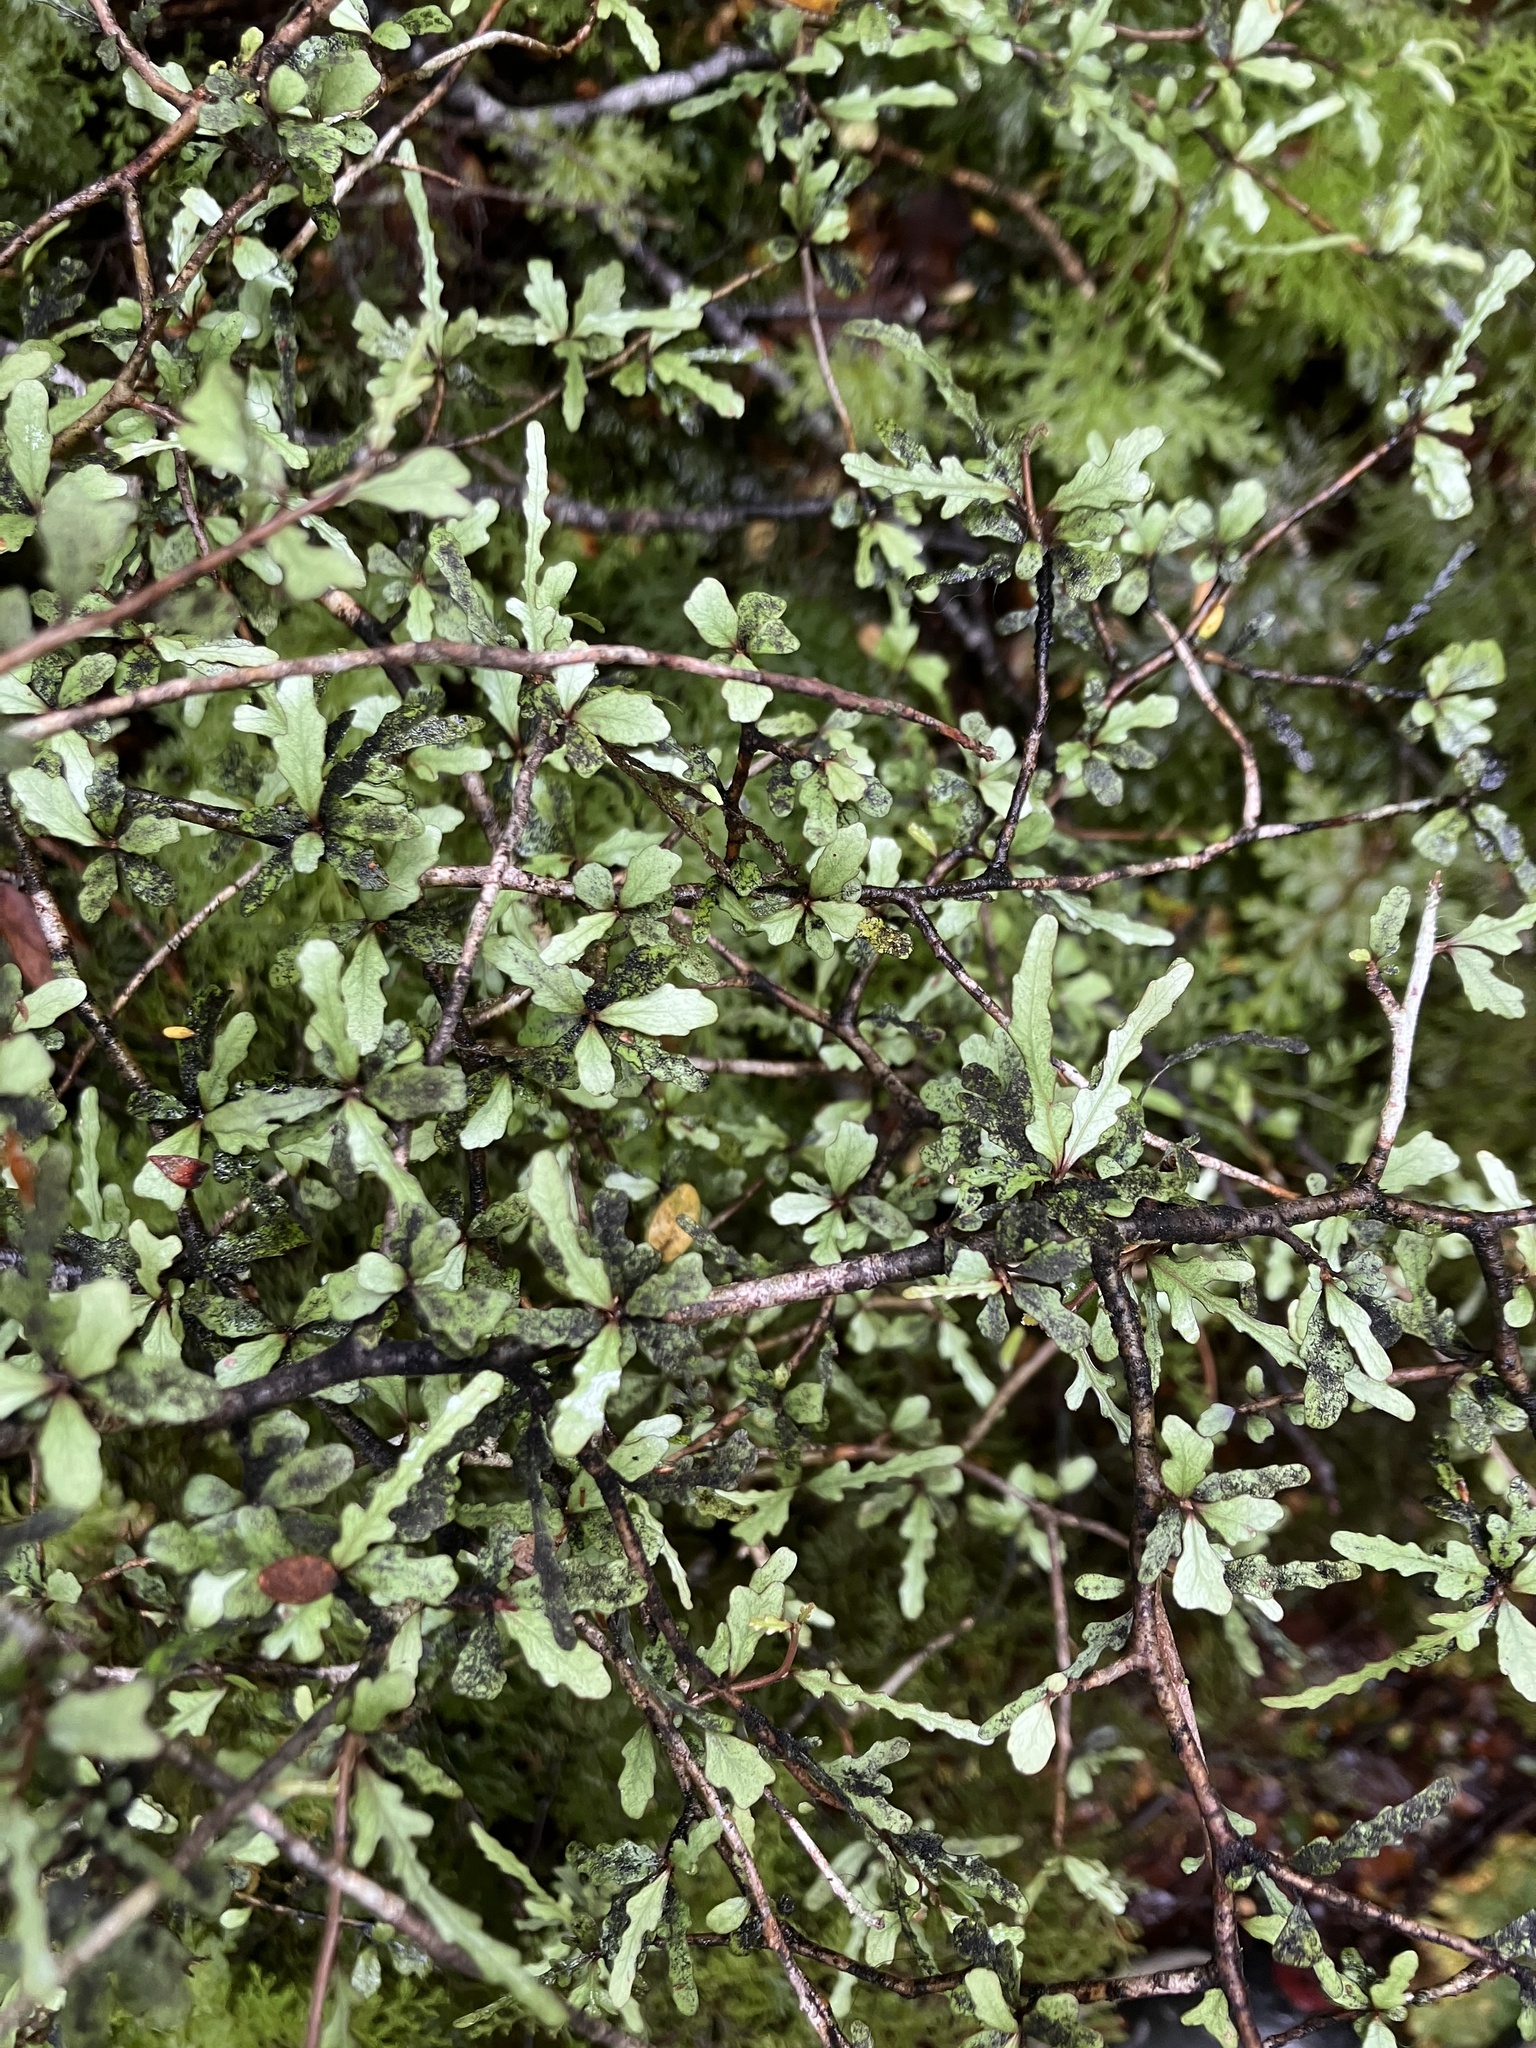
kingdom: Plantae
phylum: Tracheophyta
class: Magnoliopsida
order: Oxalidales
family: Elaeocarpaceae
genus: Elaeocarpus
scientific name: Elaeocarpus hookerianus
